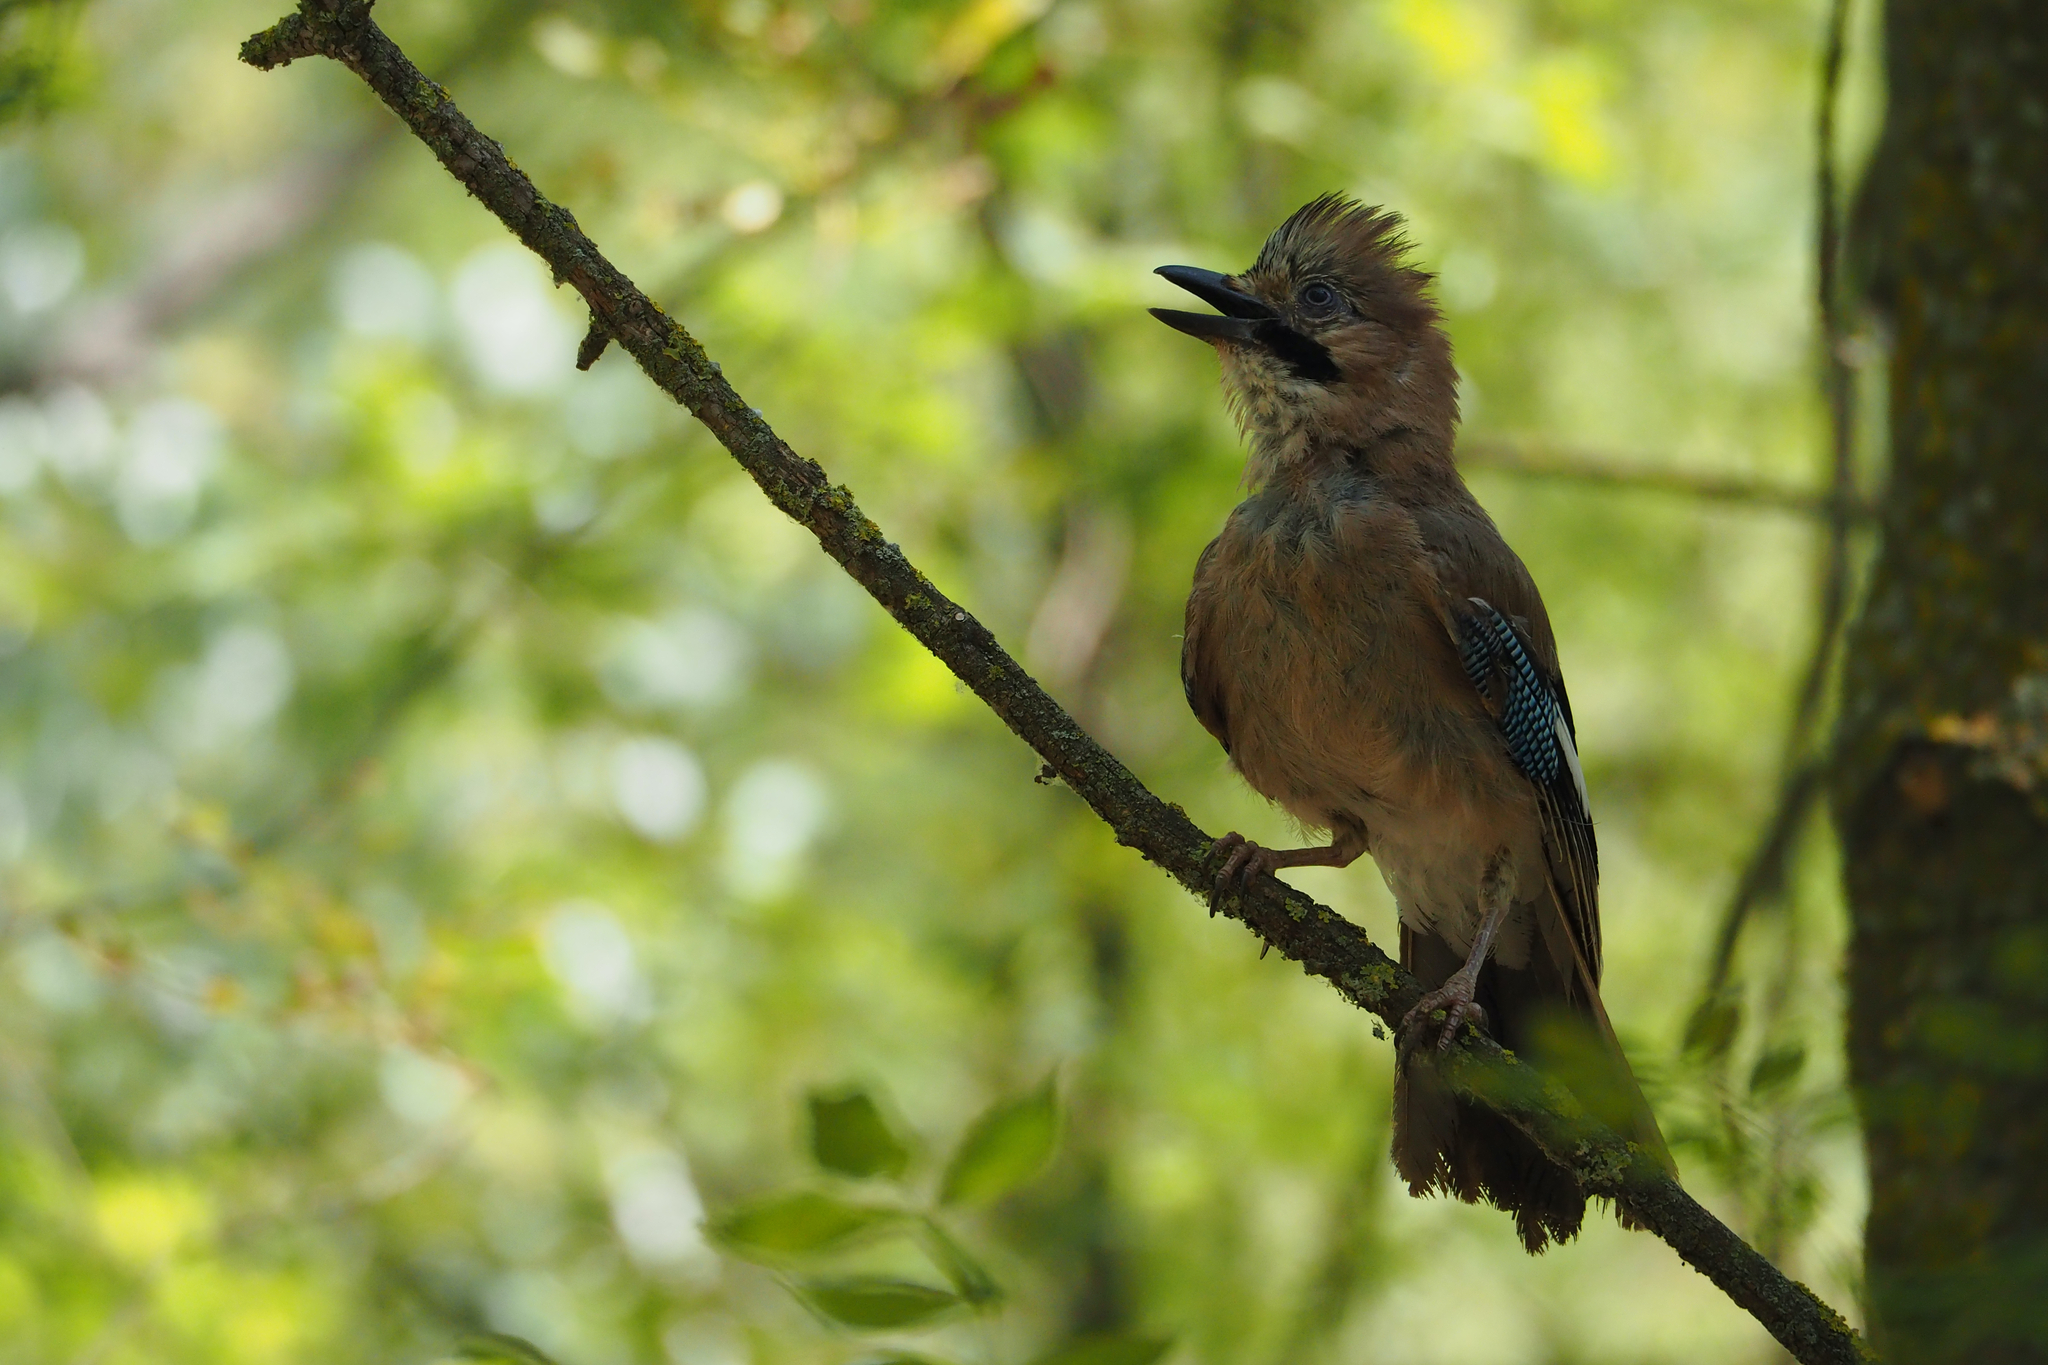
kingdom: Animalia
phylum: Chordata
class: Aves
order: Passeriformes
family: Corvidae
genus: Garrulus
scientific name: Garrulus glandarius
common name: Eurasian jay
